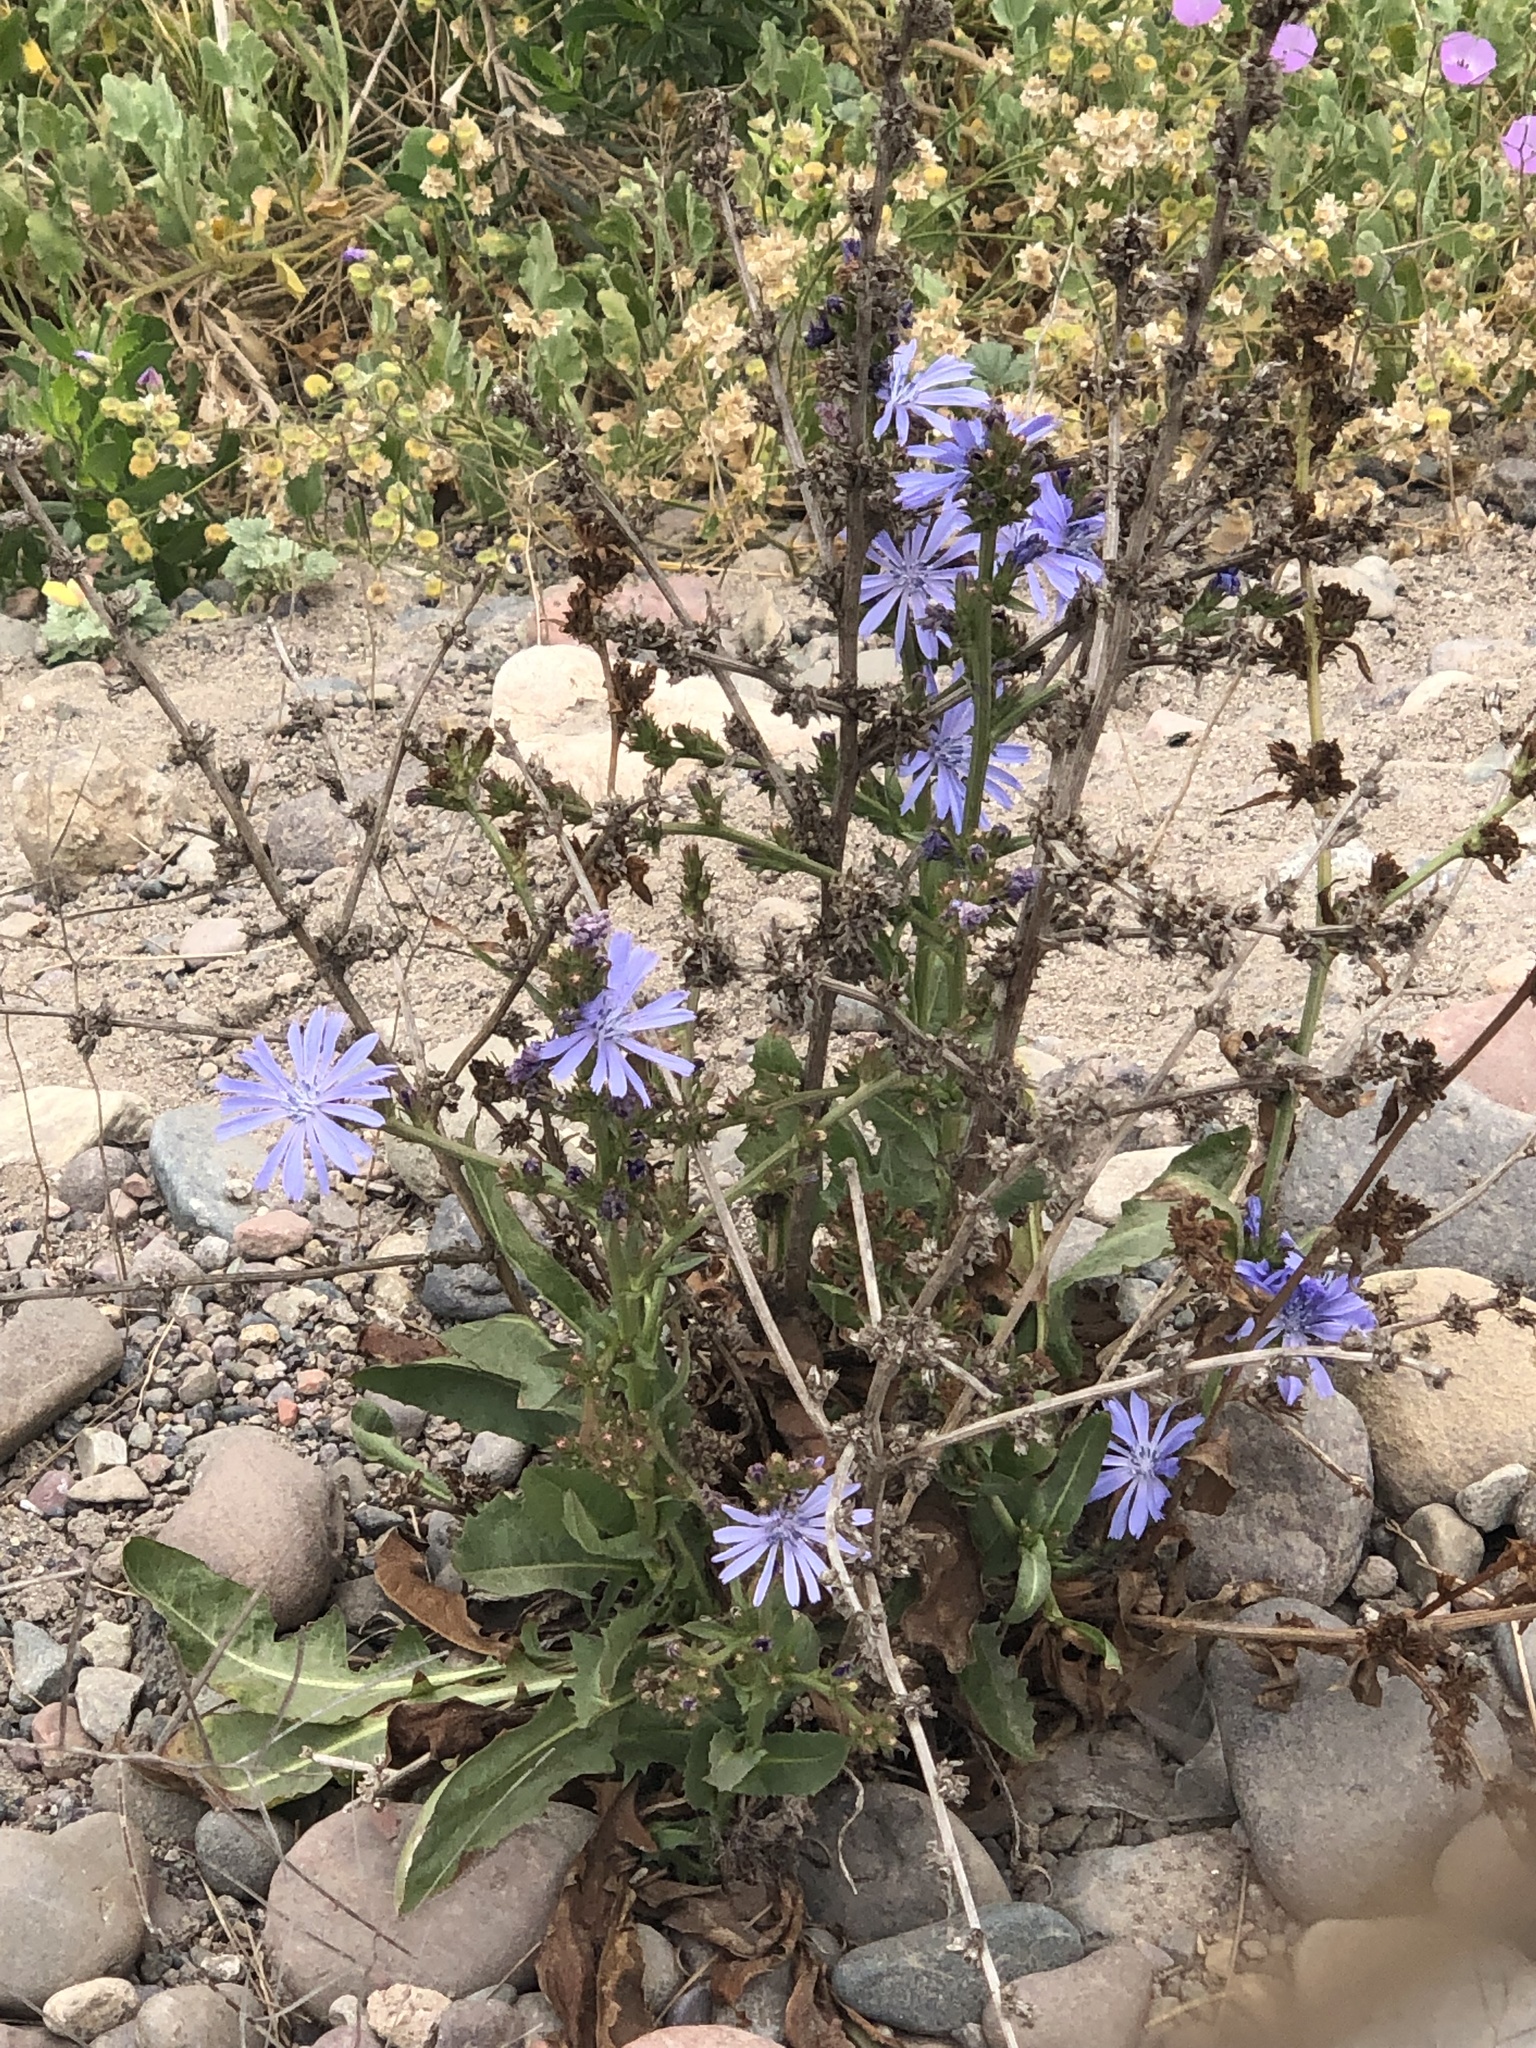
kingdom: Plantae
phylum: Tracheophyta
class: Magnoliopsida
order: Asterales
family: Asteraceae
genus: Cichorium
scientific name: Cichorium intybus
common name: Chicory
